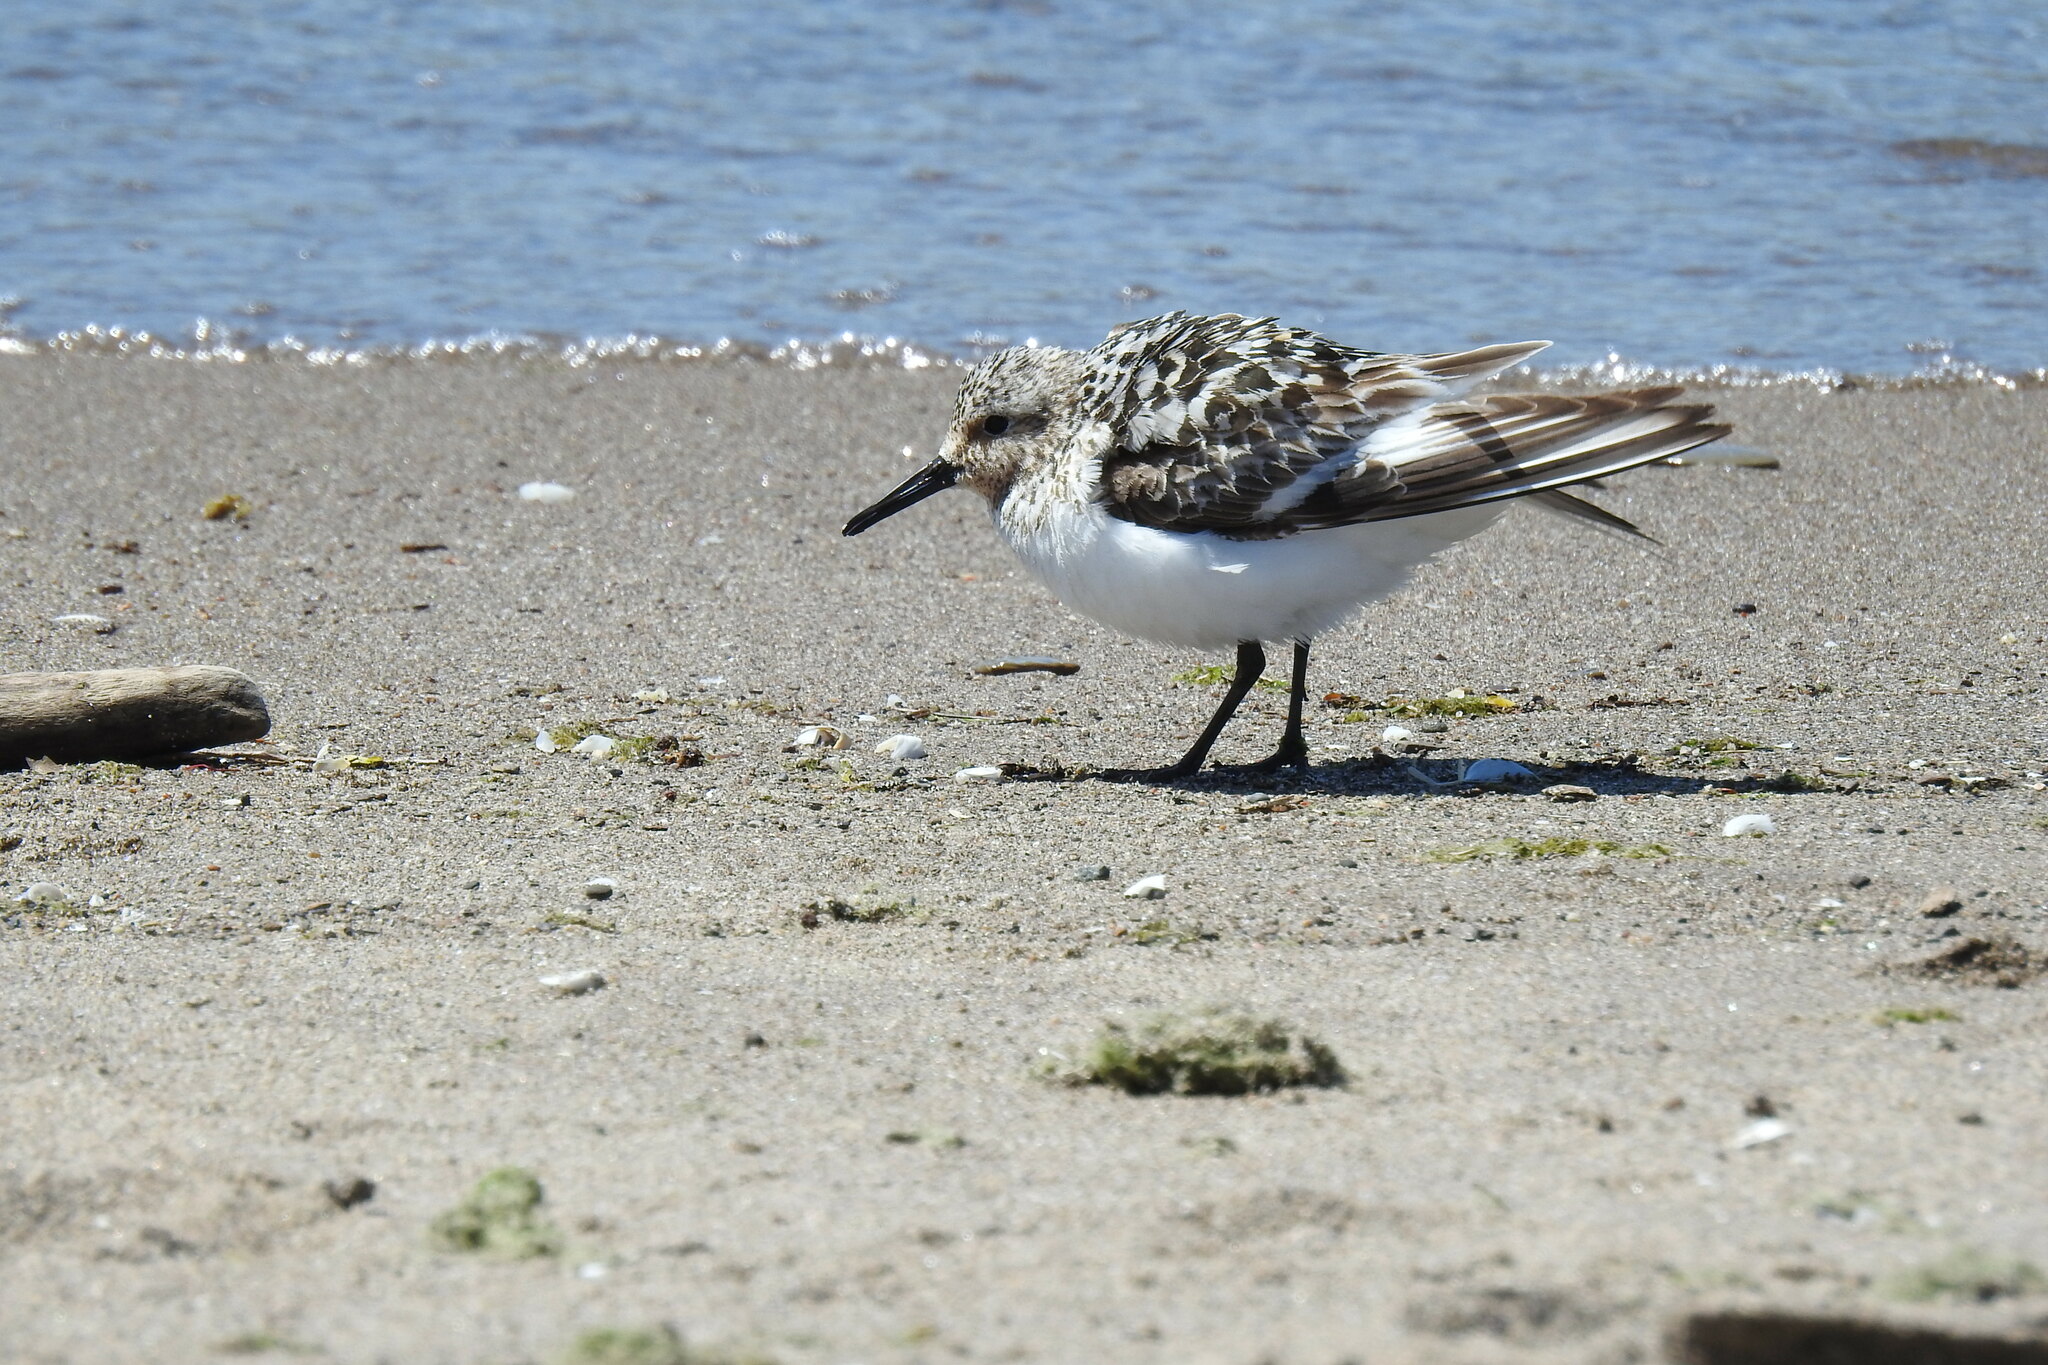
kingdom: Animalia
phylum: Chordata
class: Aves
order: Charadriiformes
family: Scolopacidae
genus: Calidris
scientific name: Calidris alba
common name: Sanderling
